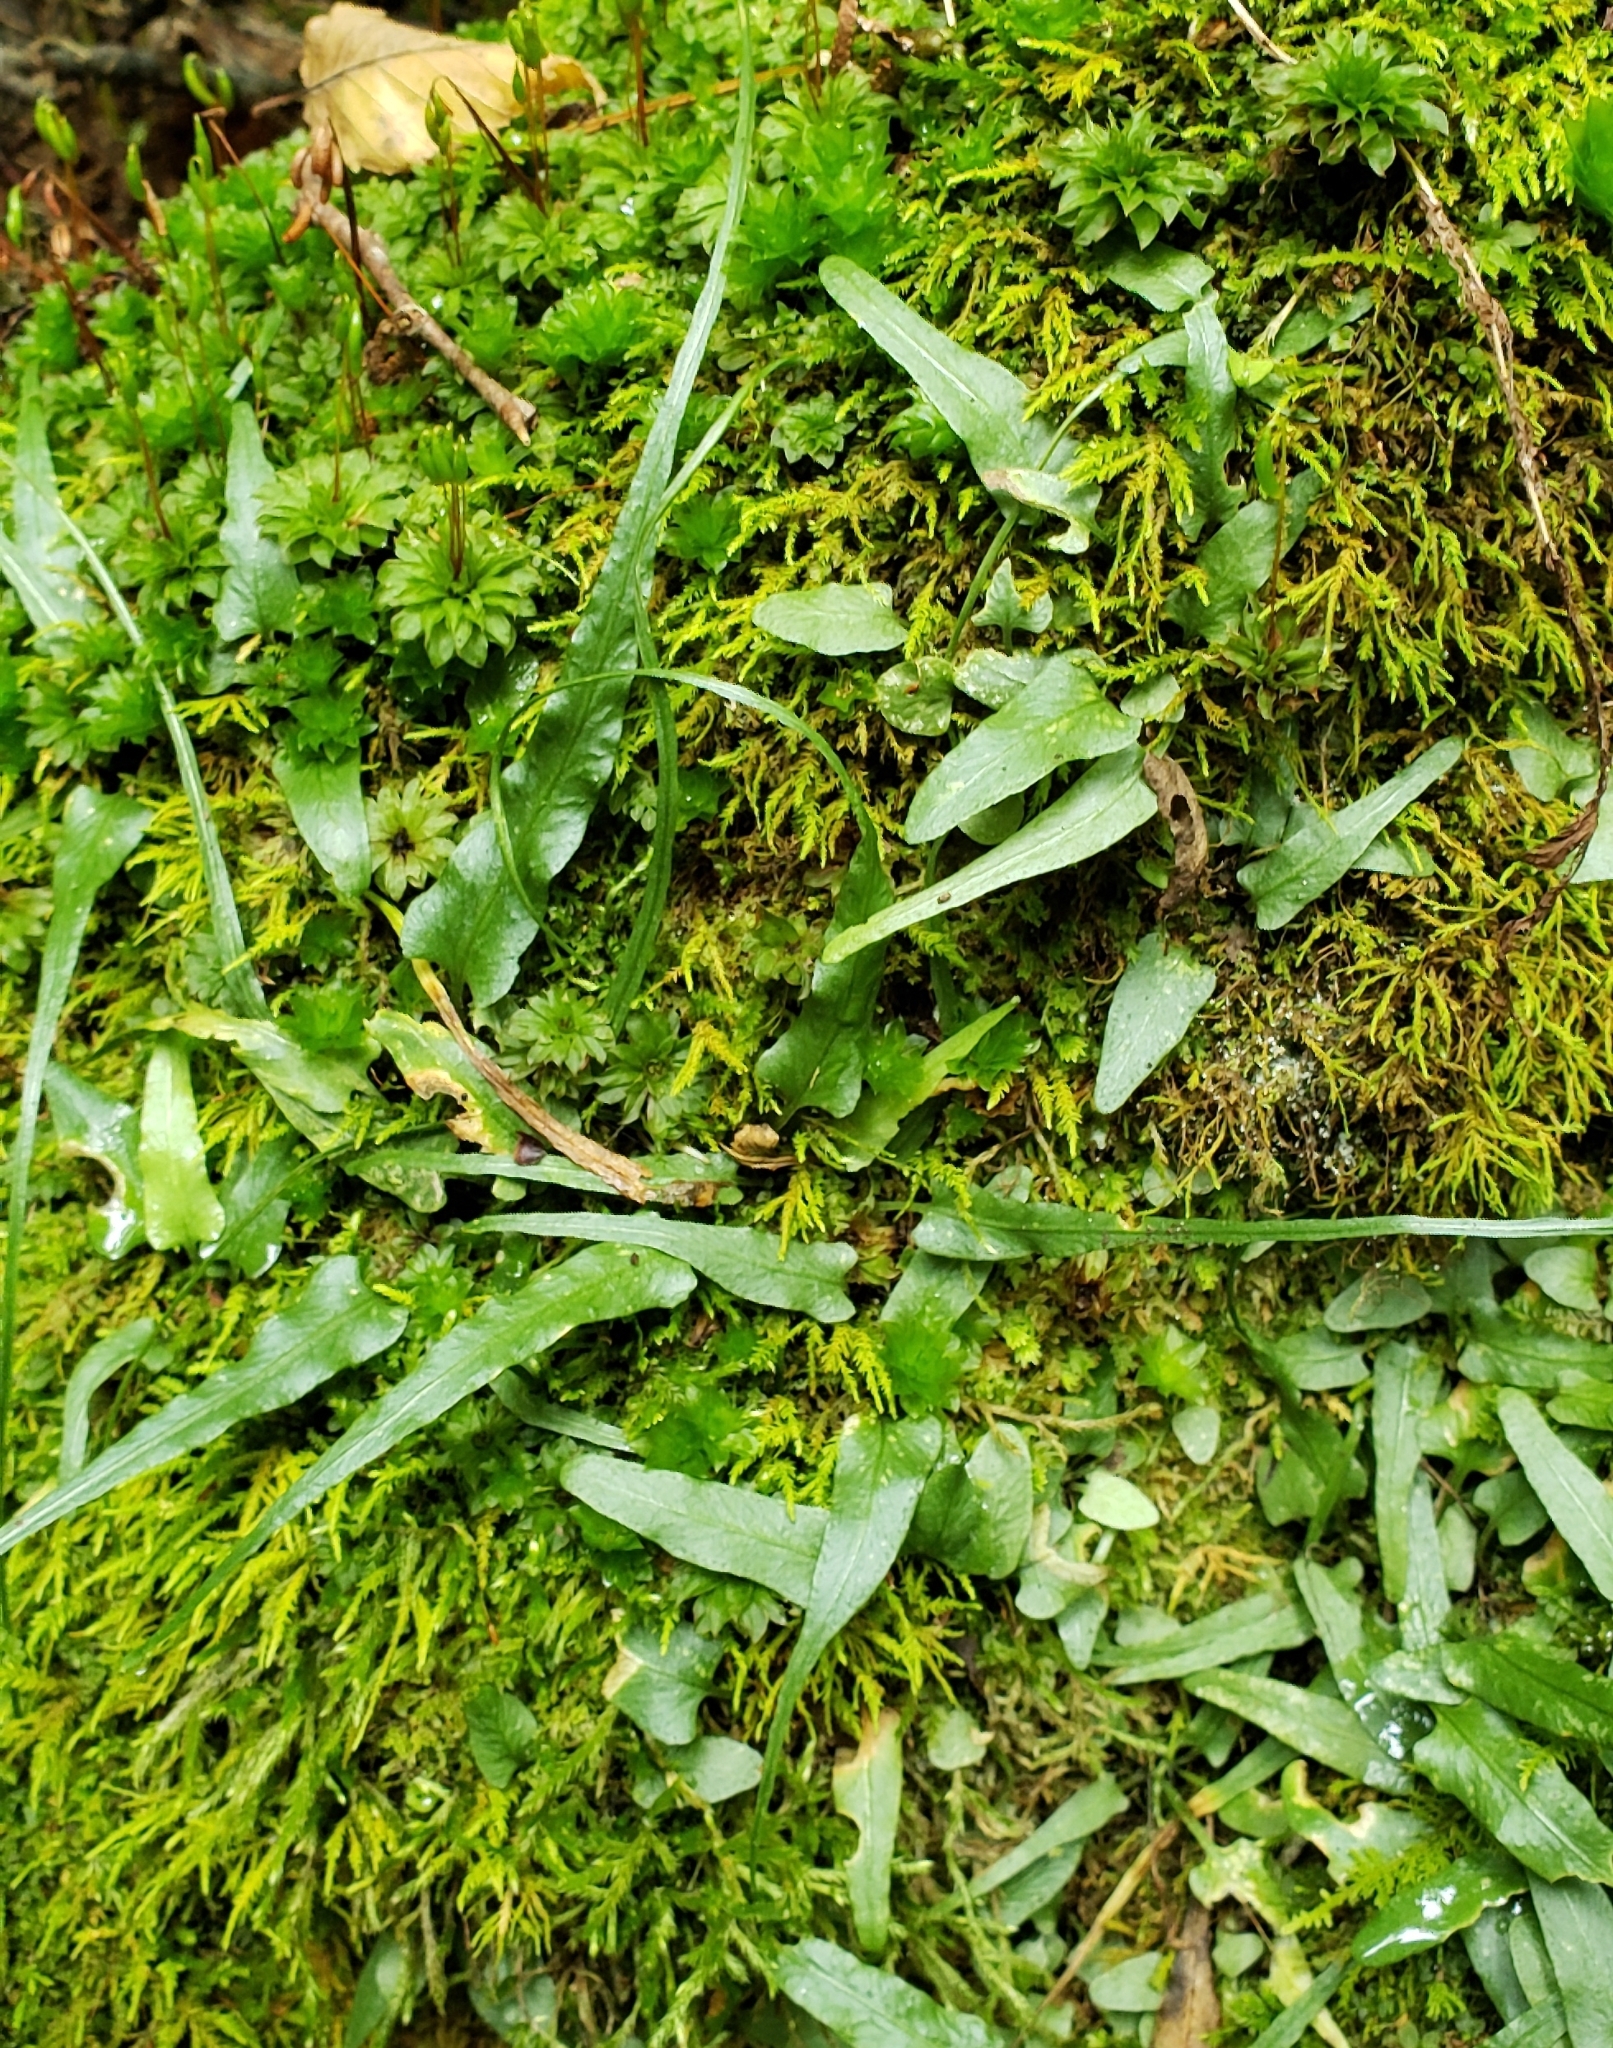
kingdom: Plantae
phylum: Tracheophyta
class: Polypodiopsida
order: Polypodiales
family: Aspleniaceae
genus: Asplenium
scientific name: Asplenium rhizophyllum
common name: Walking fern
